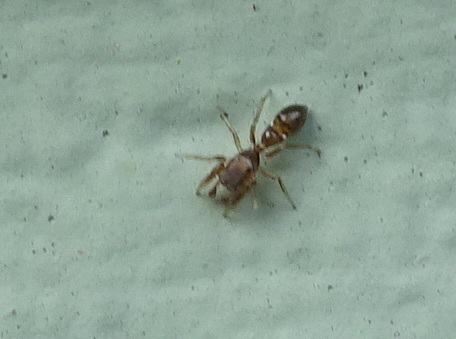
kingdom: Animalia
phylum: Arthropoda
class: Arachnida
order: Araneae
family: Salticidae
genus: Synageles
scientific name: Synageles
